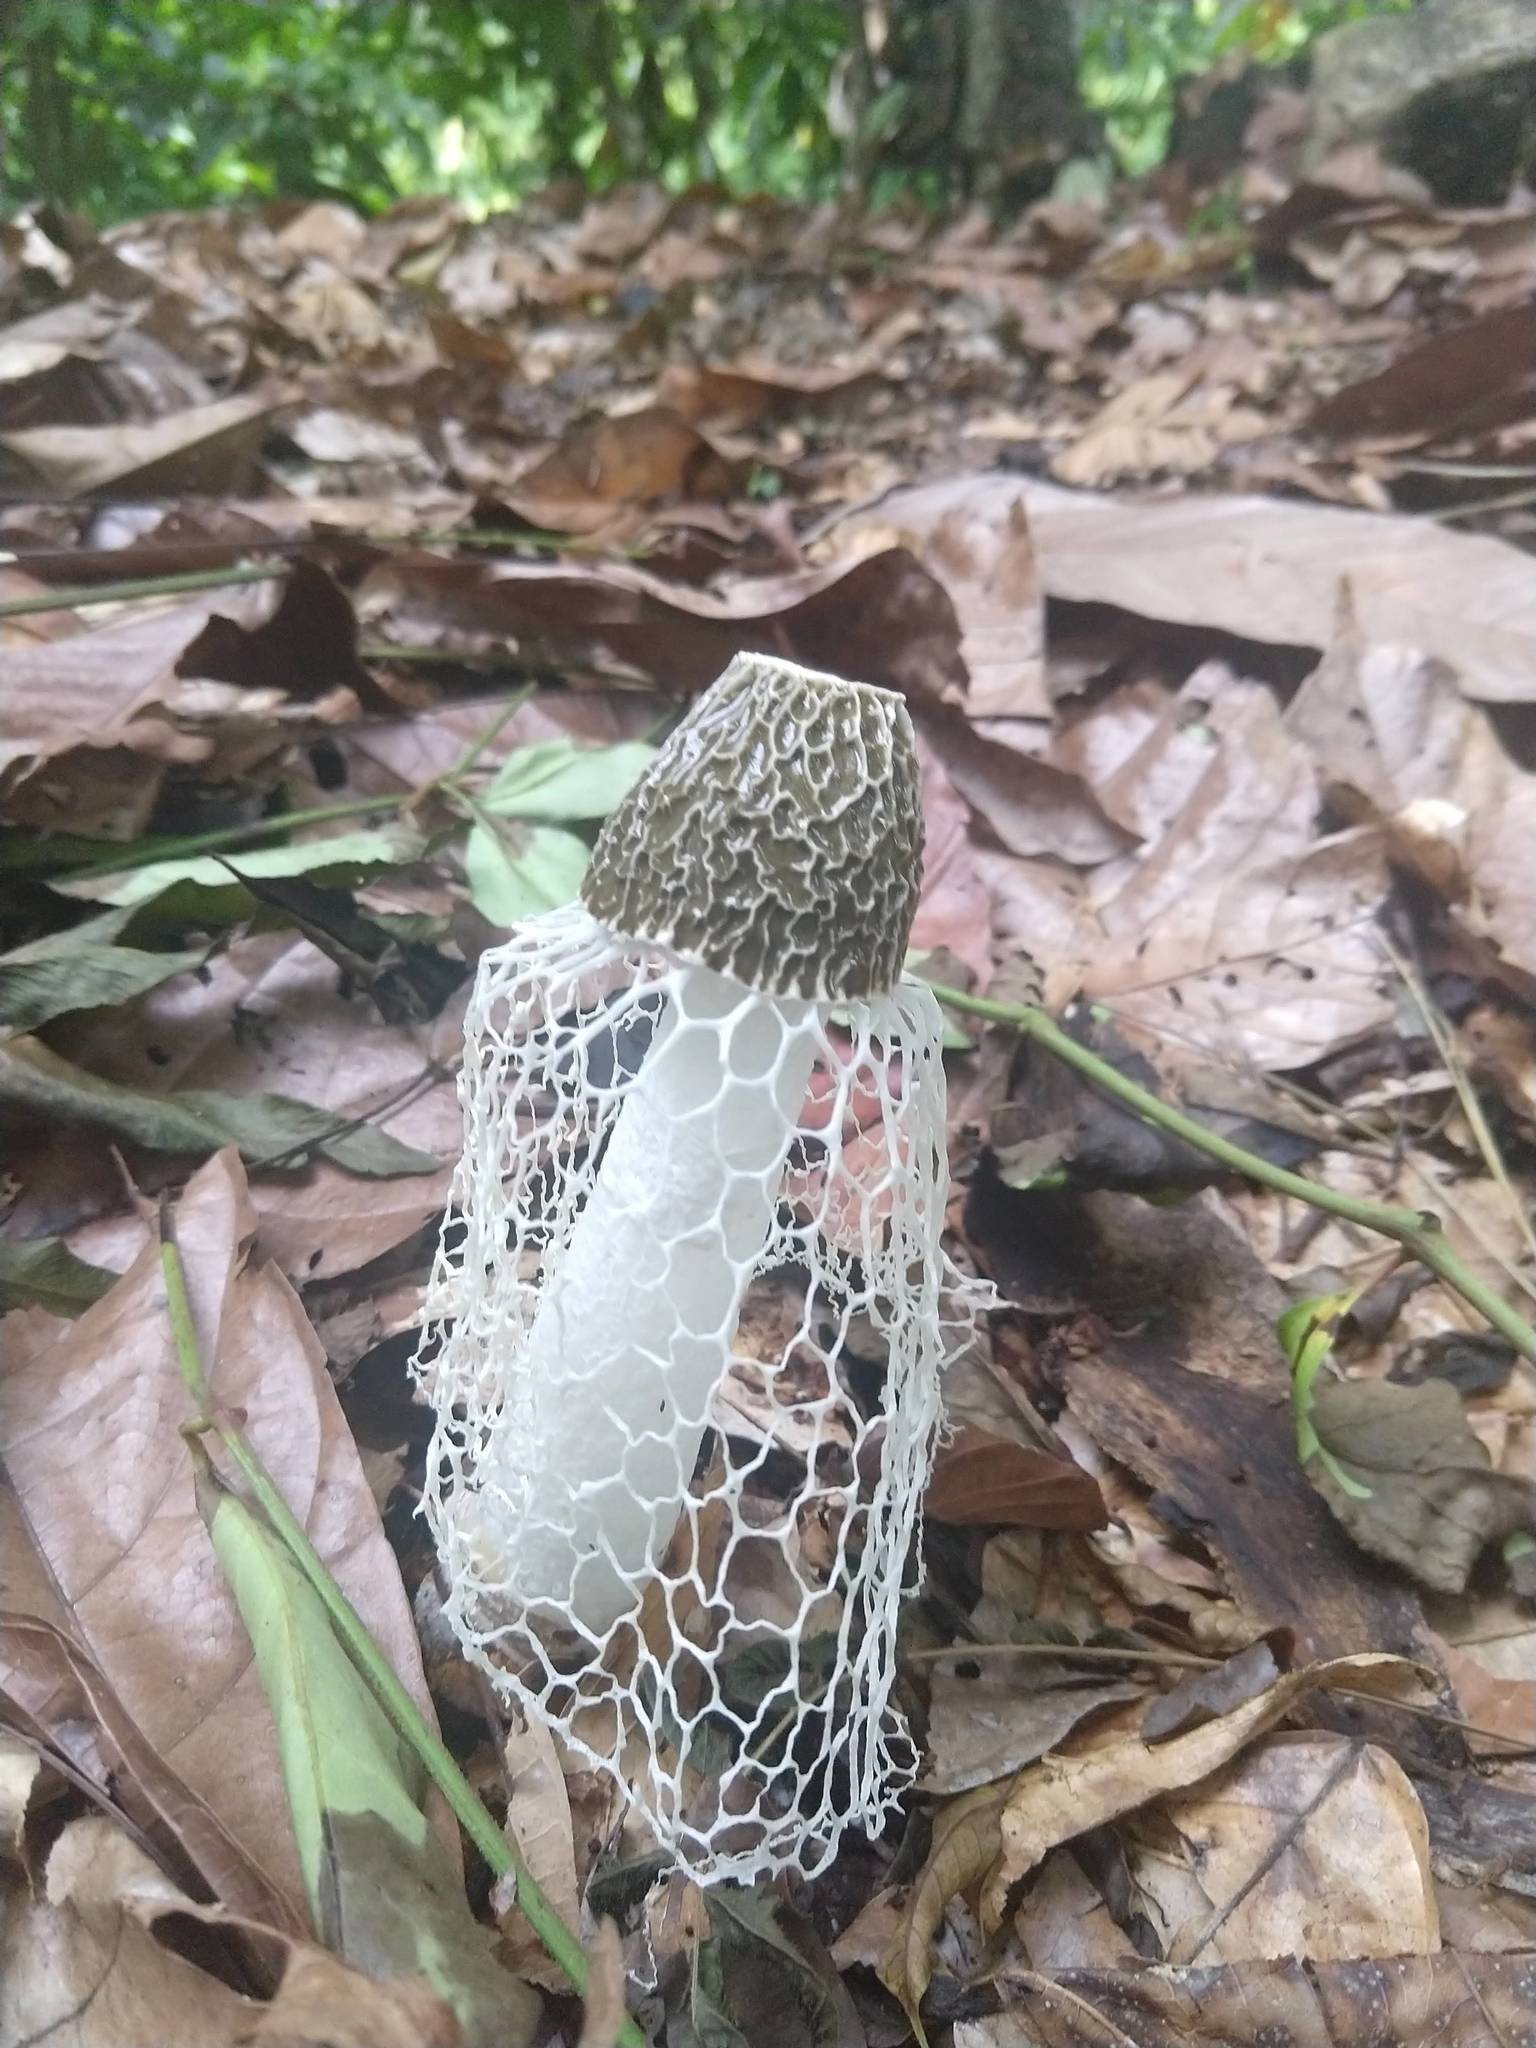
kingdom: Fungi
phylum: Basidiomycota
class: Agaricomycetes
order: Phallales
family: Phallaceae
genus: Phallus
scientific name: Phallus indusiatus
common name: Bridal veil stinkhorn
